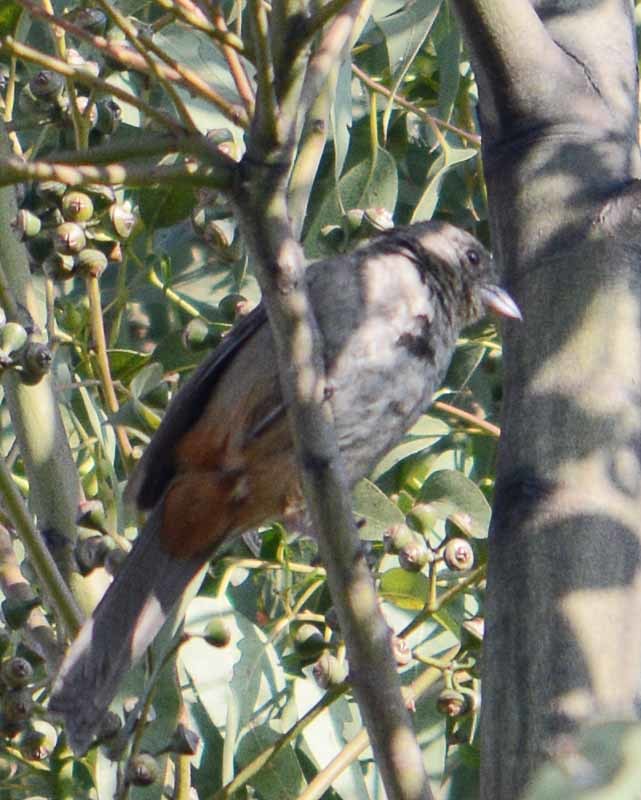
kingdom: Animalia
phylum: Chordata
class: Aves
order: Passeriformes
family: Passerellidae
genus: Melozone
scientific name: Melozone fusca
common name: Canyon towhee
